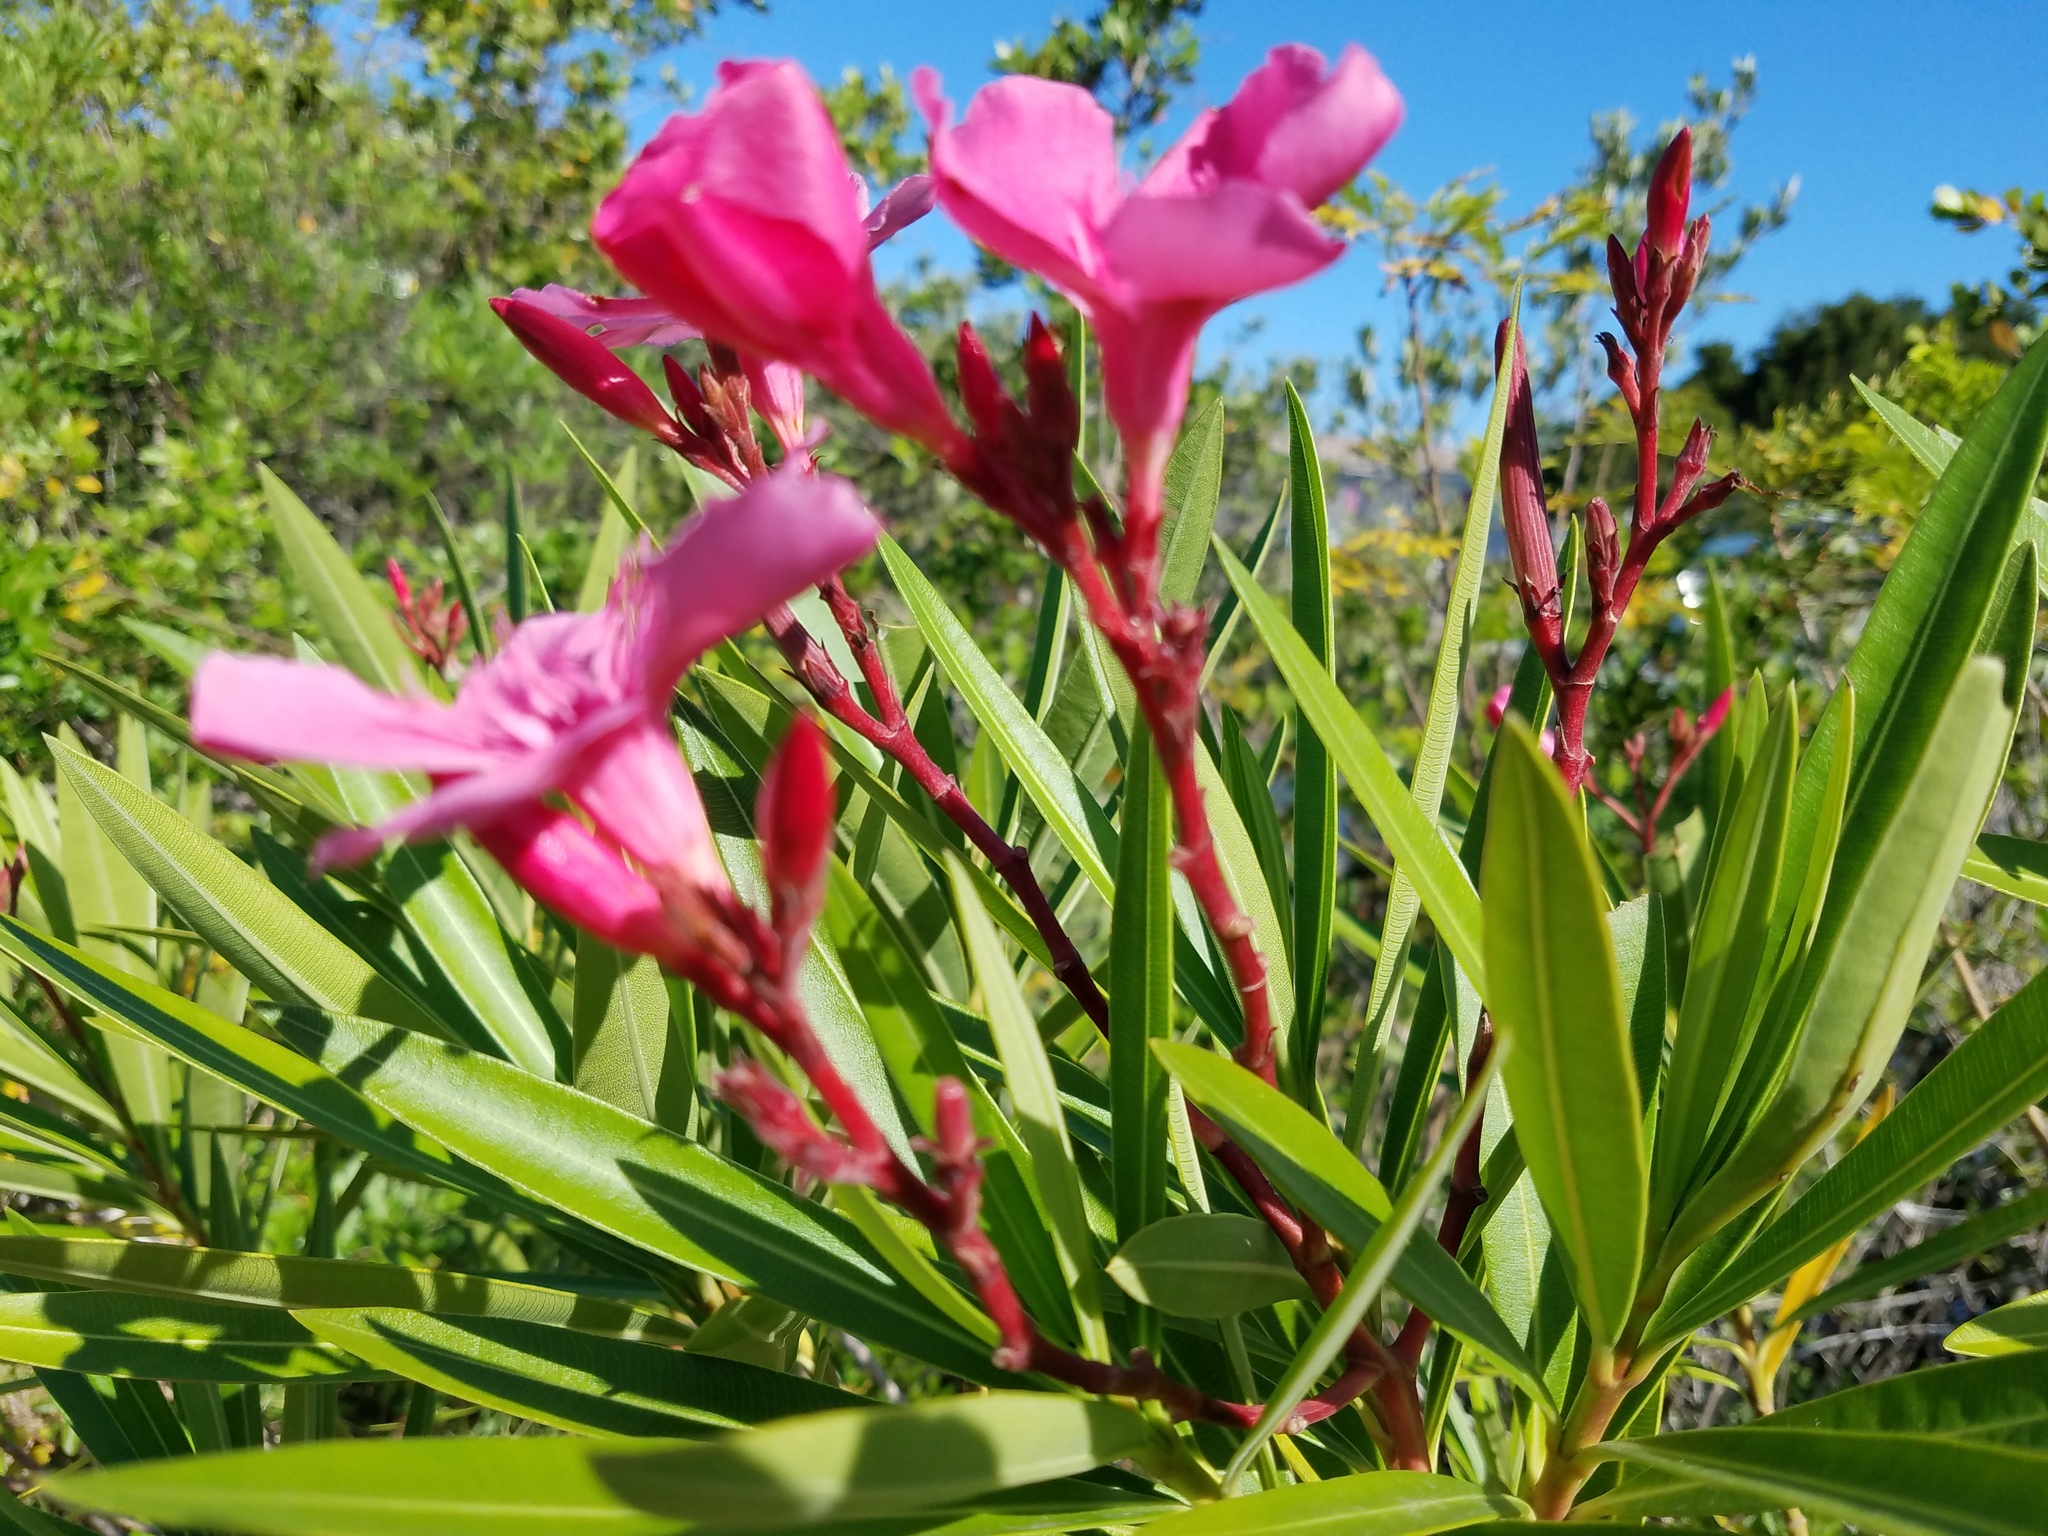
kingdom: Plantae
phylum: Tracheophyta
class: Magnoliopsida
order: Gentianales
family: Apocynaceae
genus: Nerium
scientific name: Nerium oleander
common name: Oleander
